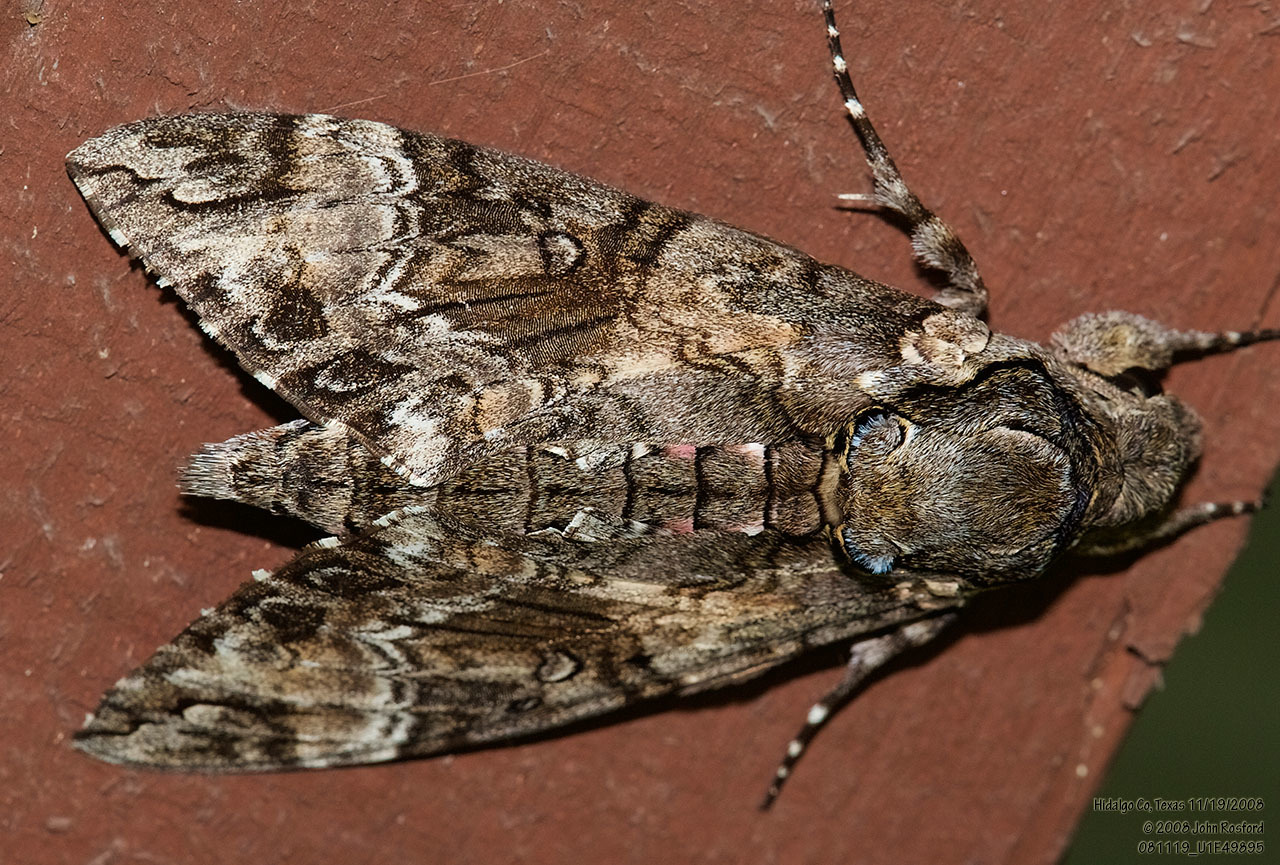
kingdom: Animalia
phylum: Arthropoda
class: Insecta
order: Lepidoptera
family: Sphingidae
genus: Agrius
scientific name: Agrius cingulata
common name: Pink-spotted hawkmoth
